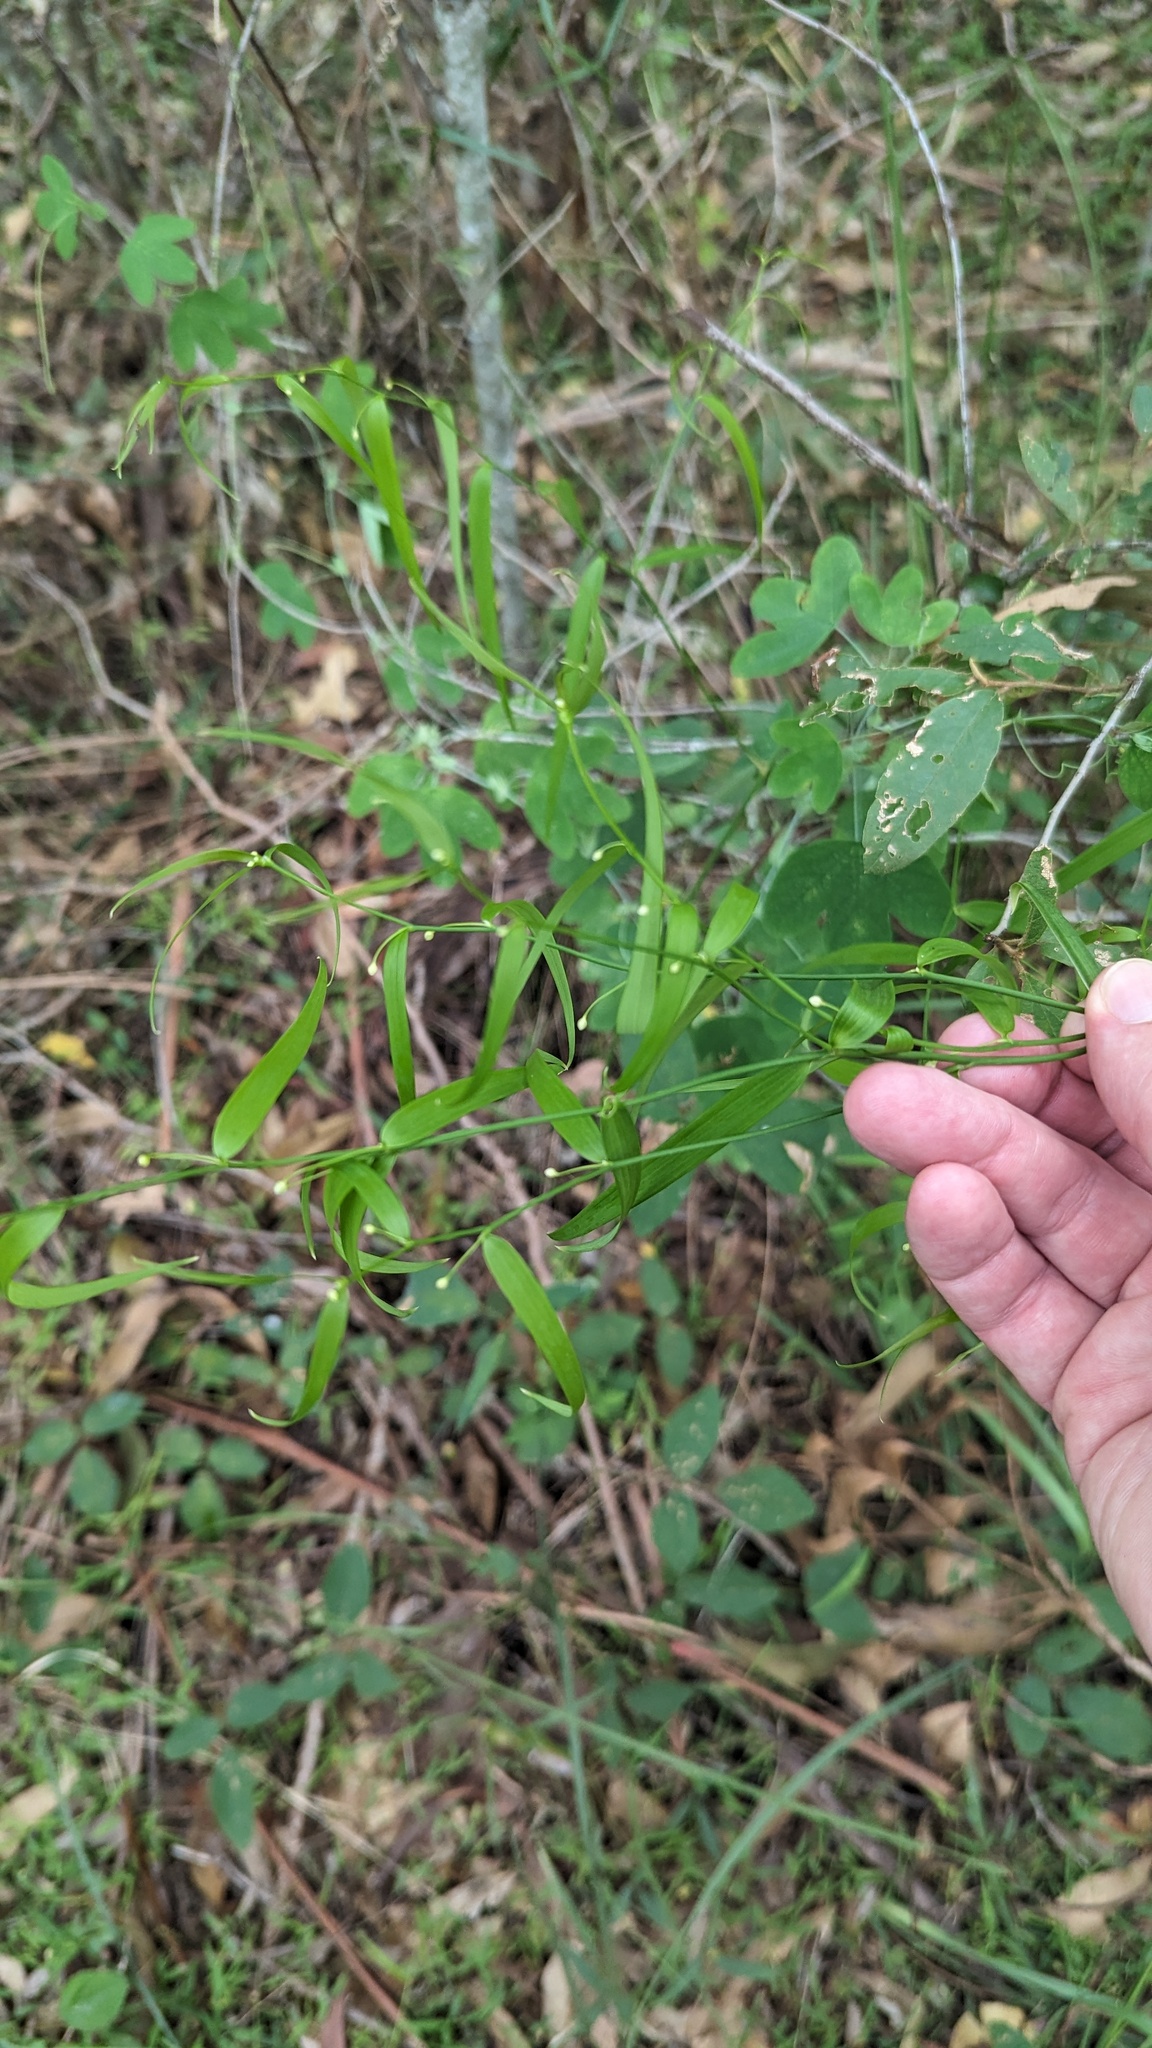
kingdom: Plantae
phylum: Tracheophyta
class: Liliopsida
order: Asparagales
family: Asparagaceae
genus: Eustrephus
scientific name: Eustrephus latifolius
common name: Orangevine
